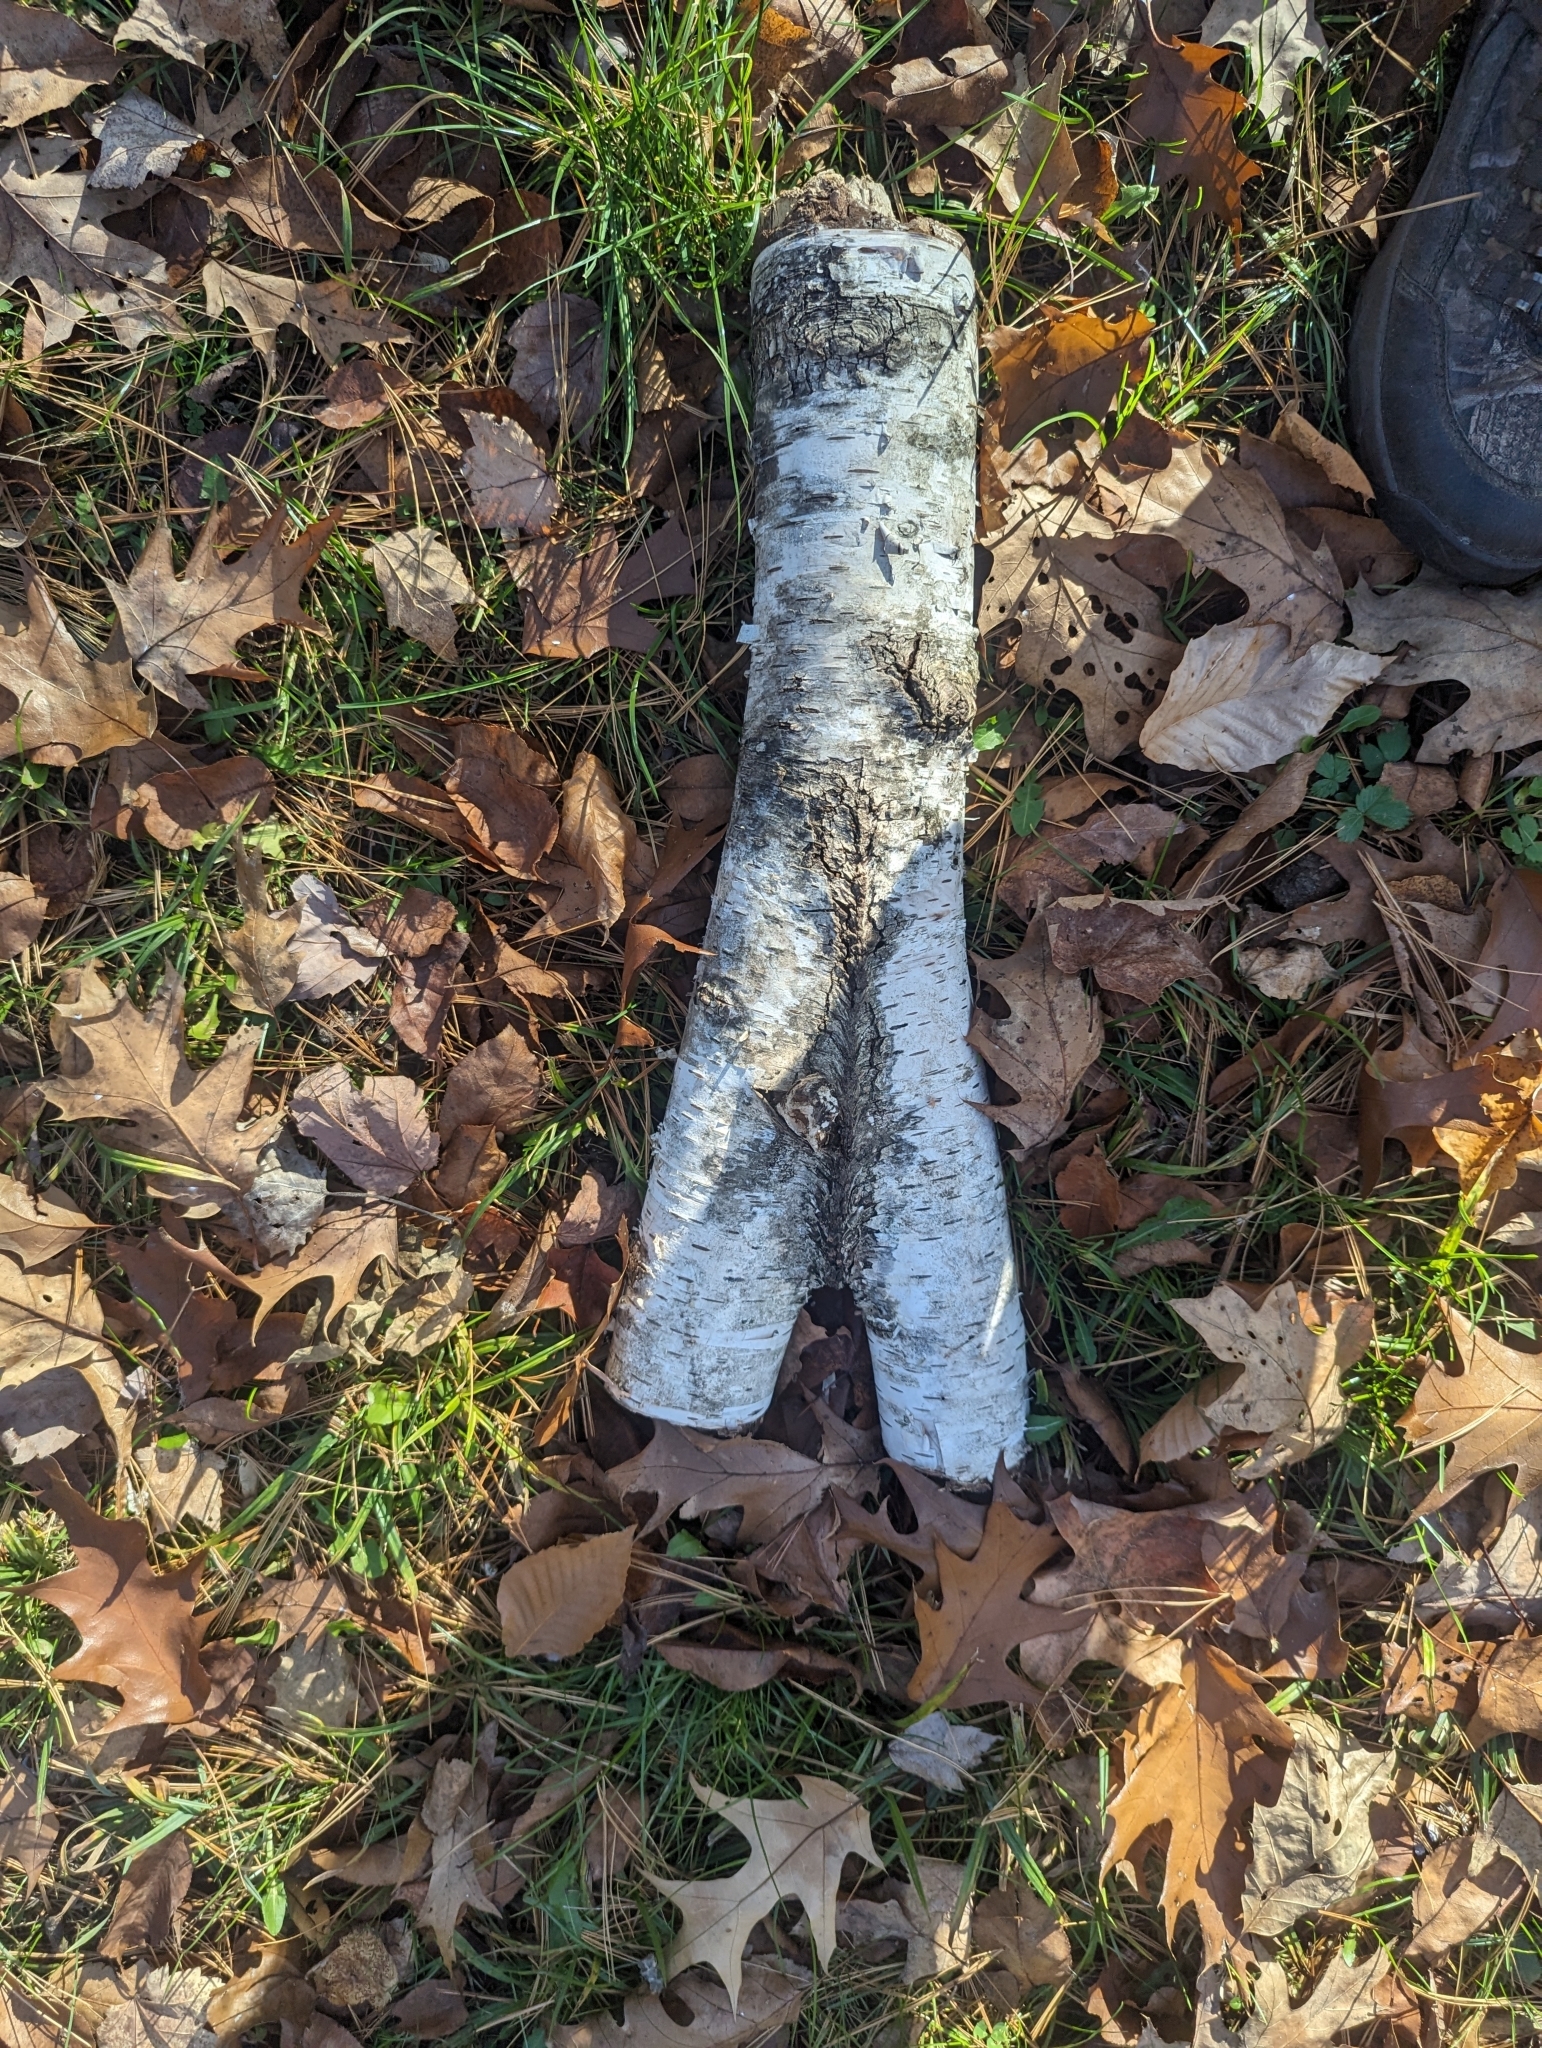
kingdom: Plantae
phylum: Tracheophyta
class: Magnoliopsida
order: Fagales
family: Betulaceae
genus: Betula
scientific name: Betula papyrifera
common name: Paper birch
